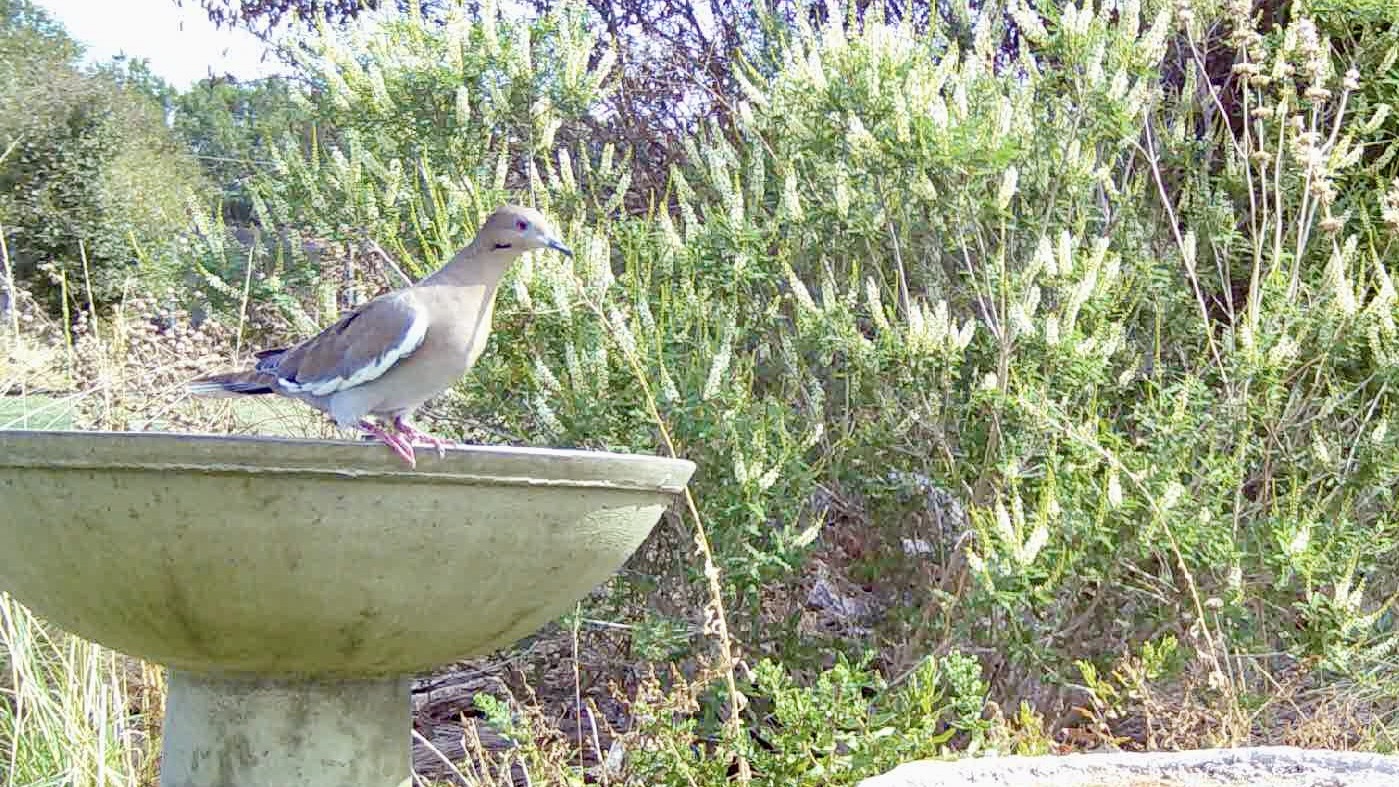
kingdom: Animalia
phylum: Chordata
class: Aves
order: Columbiformes
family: Columbidae
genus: Zenaida
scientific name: Zenaida asiatica
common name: White-winged dove
